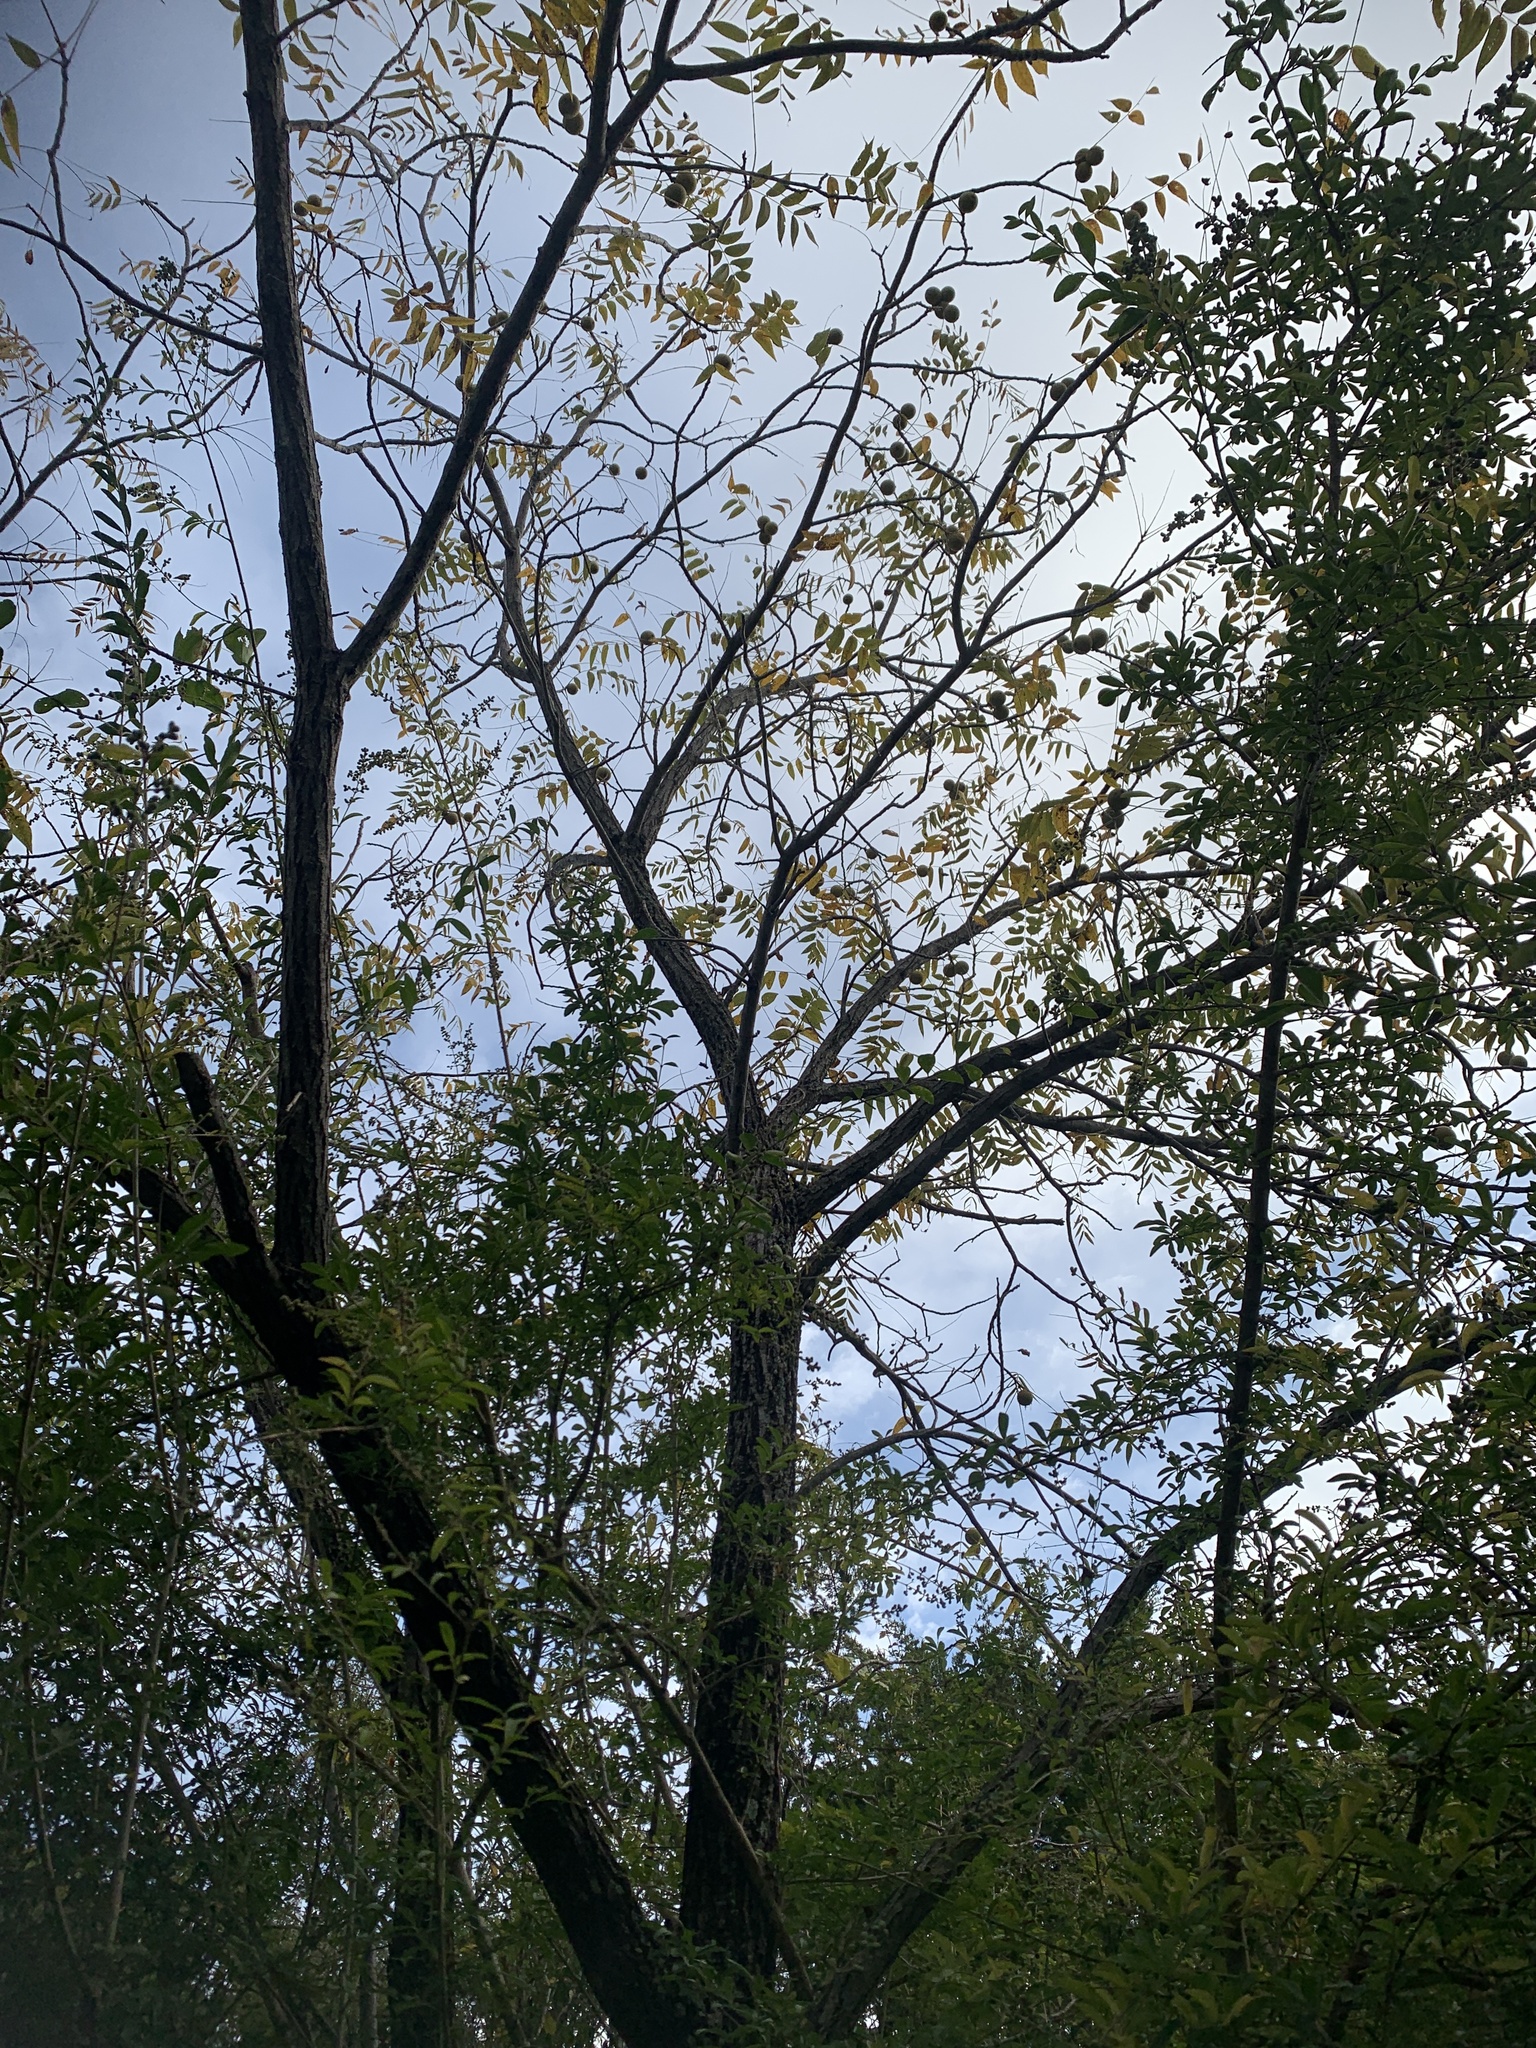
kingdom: Plantae
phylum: Tracheophyta
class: Magnoliopsida
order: Fagales
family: Juglandaceae
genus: Juglans
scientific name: Juglans nigra
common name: Black walnut
